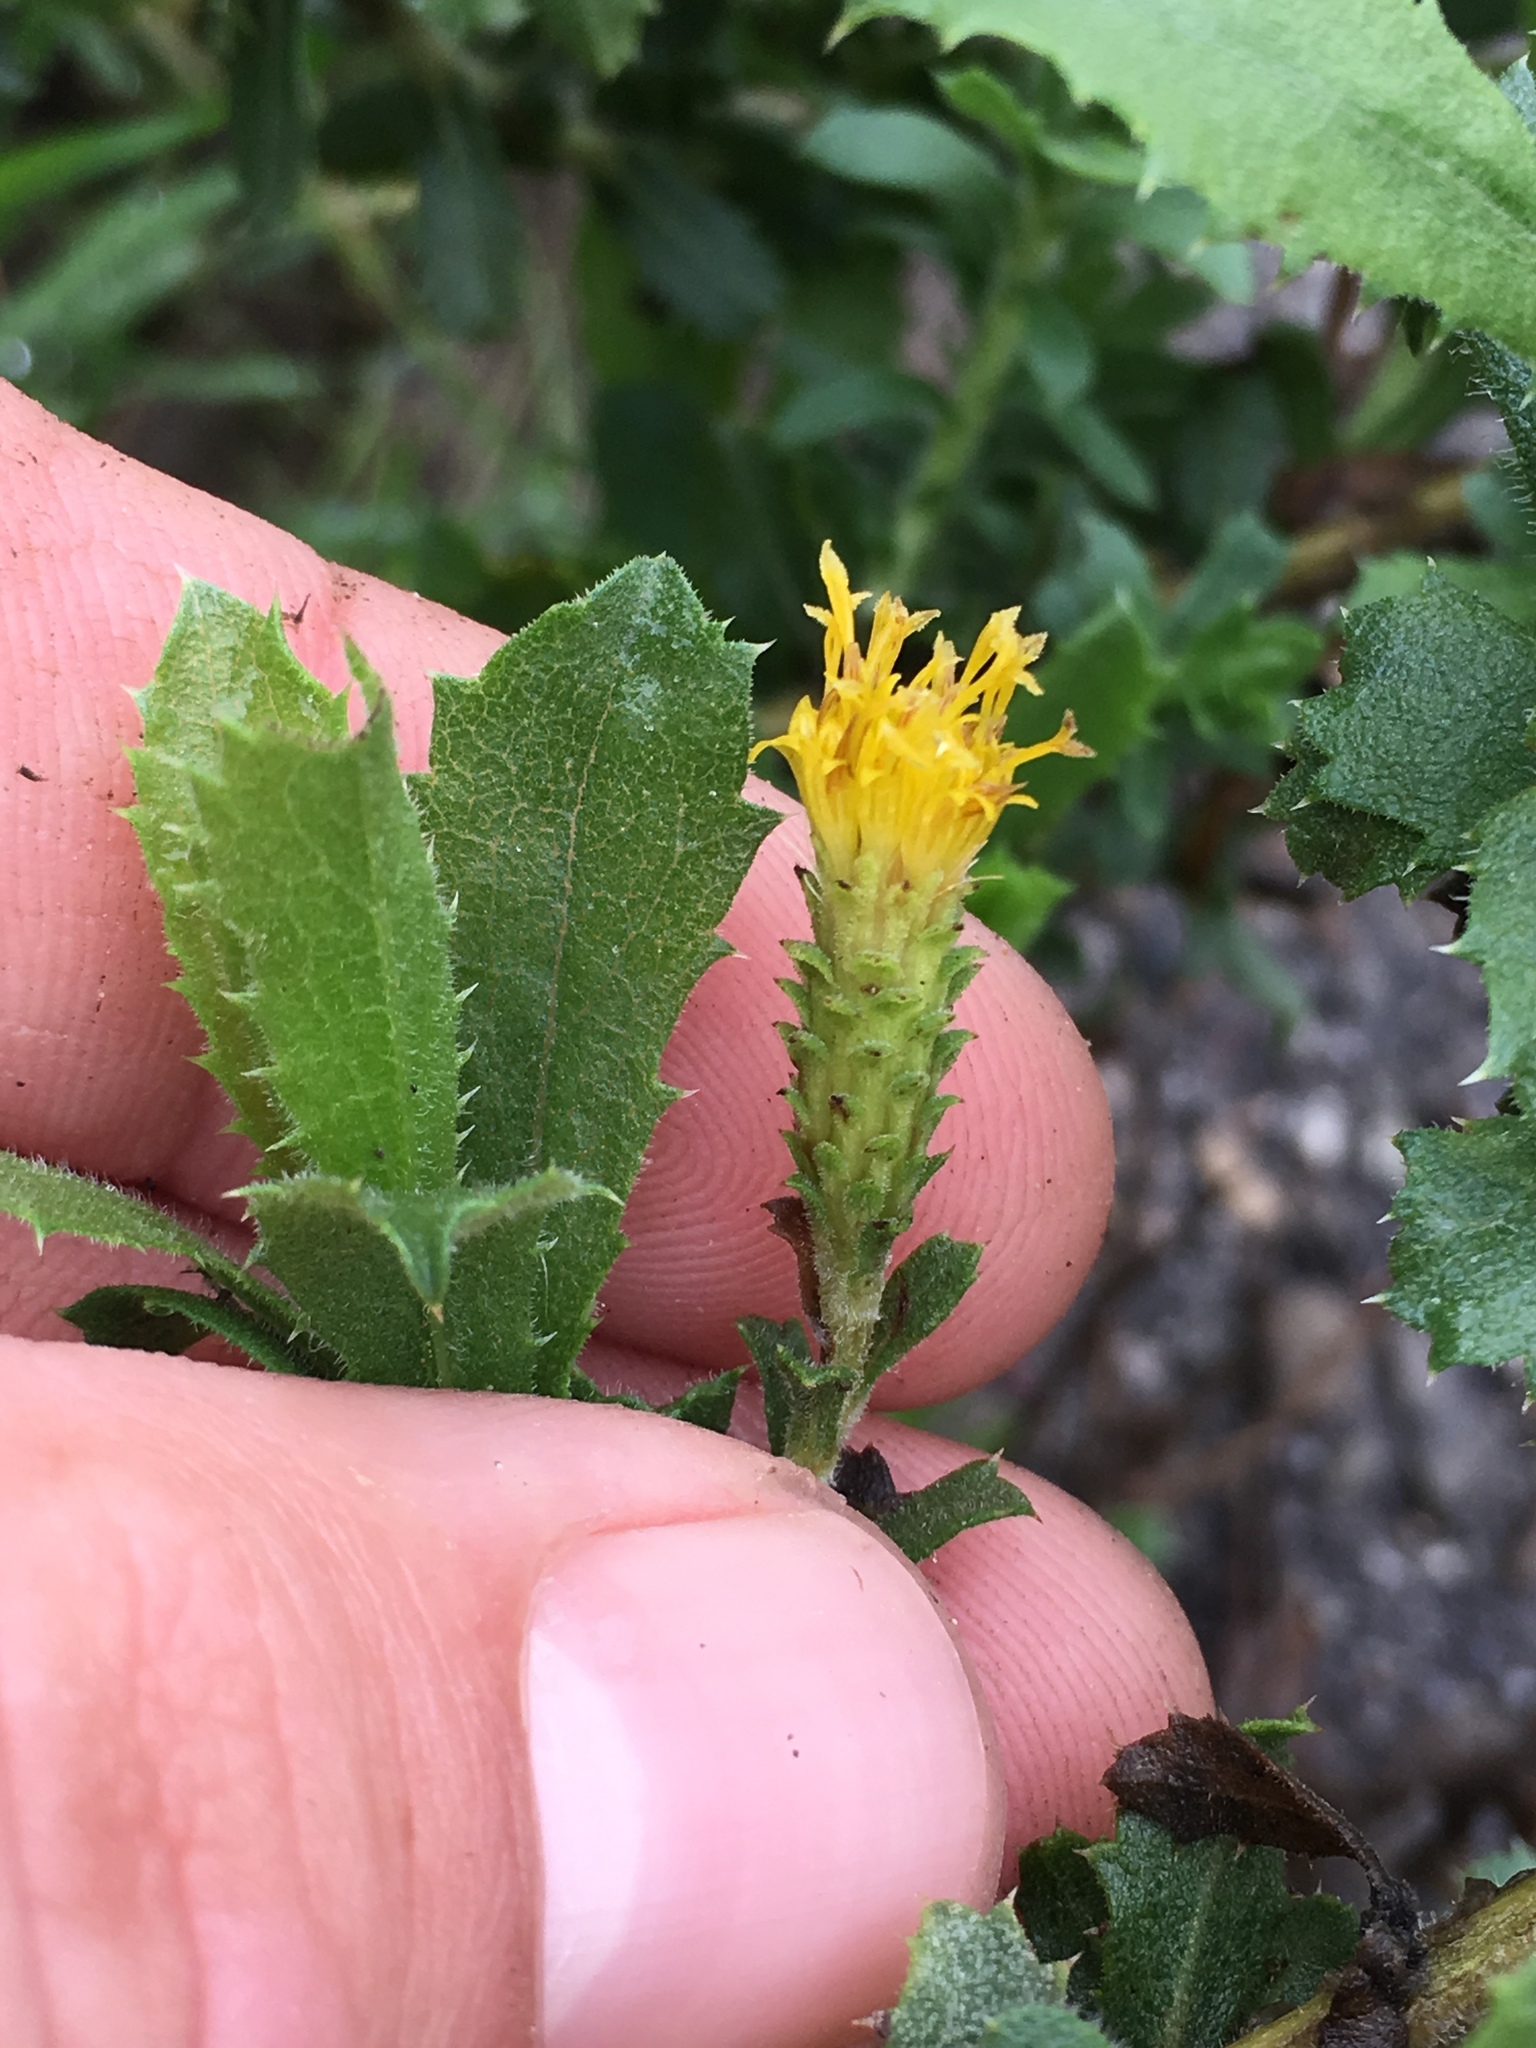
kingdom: Plantae
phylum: Tracheophyta
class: Magnoliopsida
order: Asterales
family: Asteraceae
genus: Hazardia
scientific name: Hazardia squarrosa
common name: Saw-tooth goldenbush
